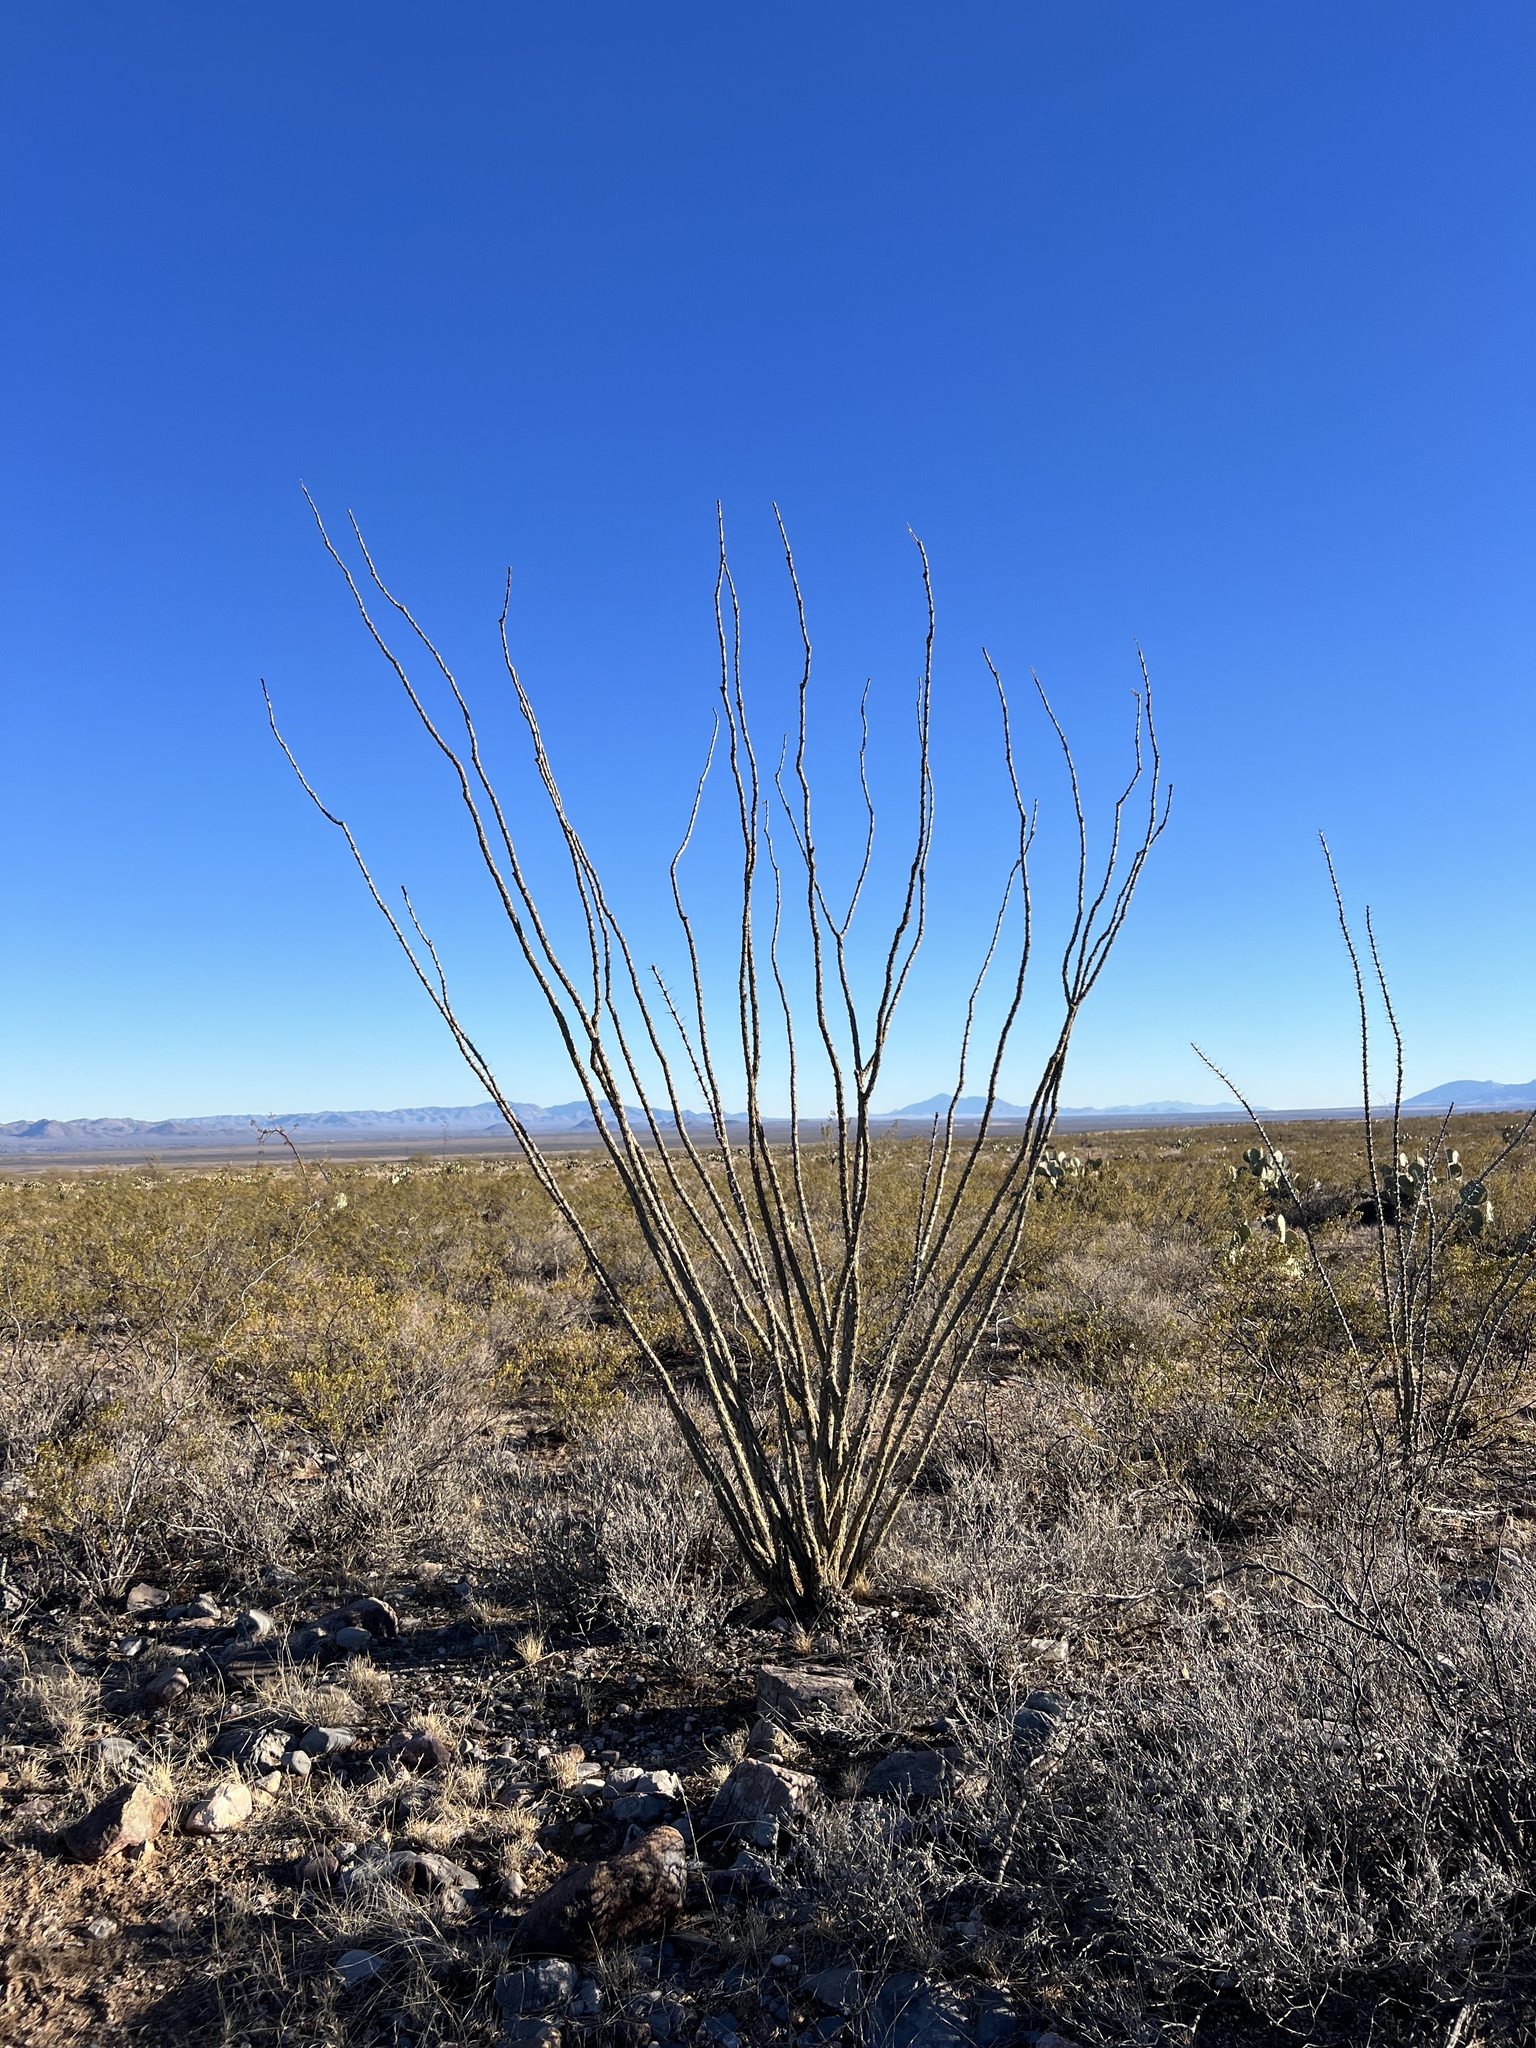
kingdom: Plantae
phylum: Tracheophyta
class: Magnoliopsida
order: Ericales
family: Fouquieriaceae
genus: Fouquieria
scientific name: Fouquieria splendens
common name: Vine-cactus
